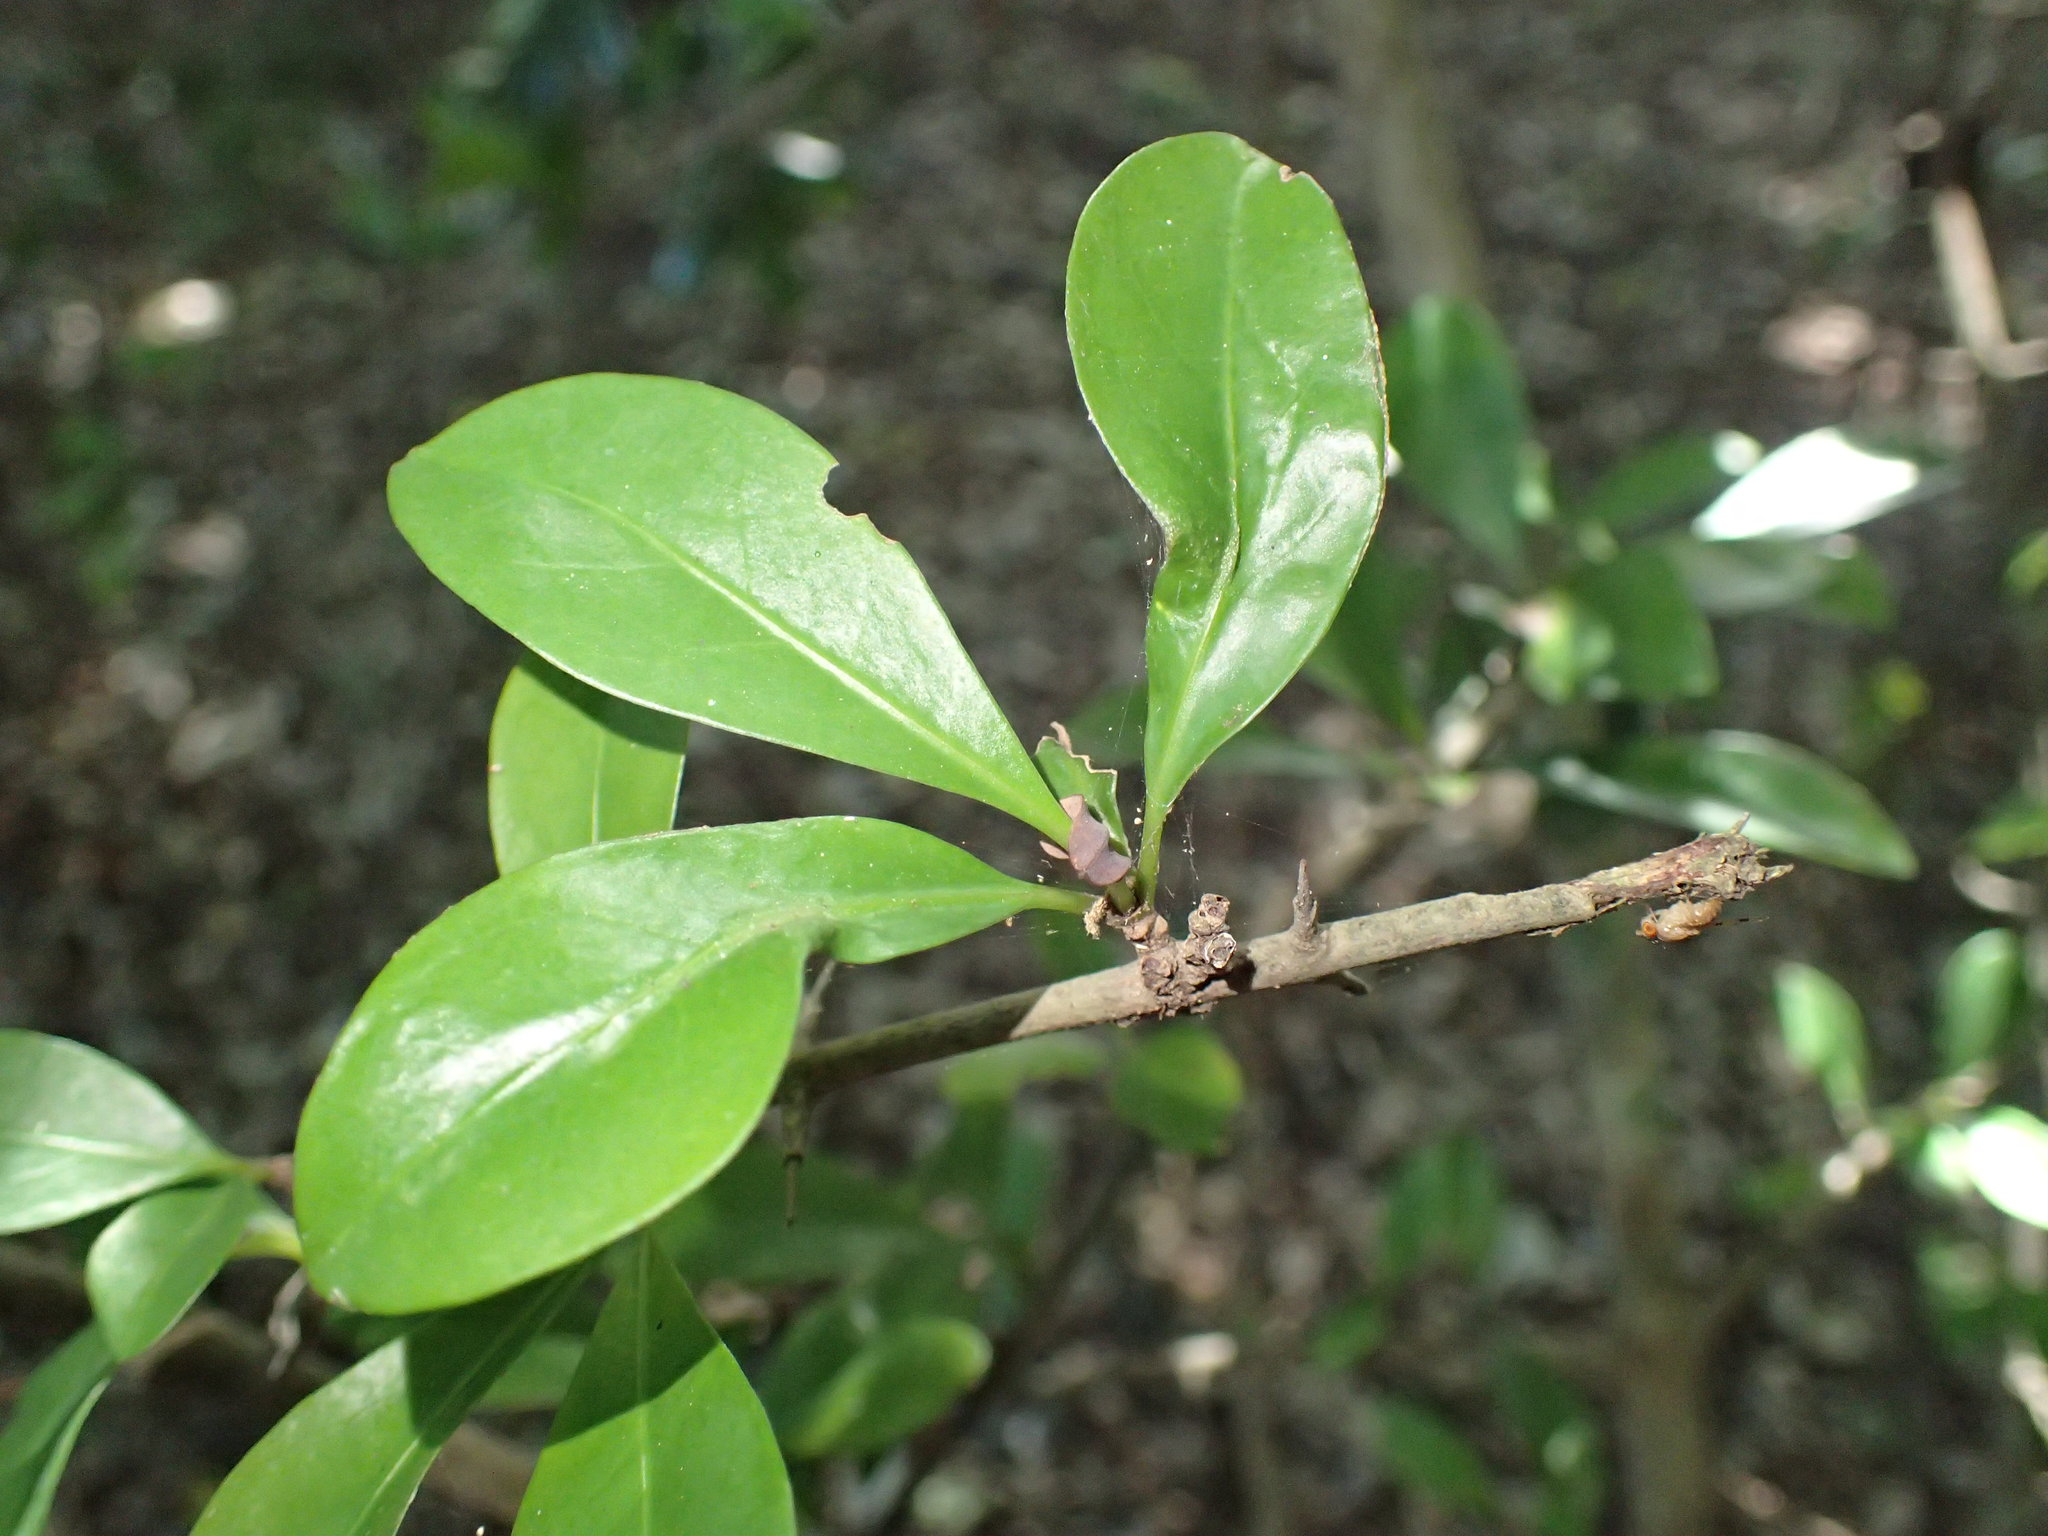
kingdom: Plantae
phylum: Tracheophyta
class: Magnoliopsida
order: Gentianales
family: Rubiaceae
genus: Hyperacanthus
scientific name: Hyperacanthus amoenus
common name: Spiny gardenia
